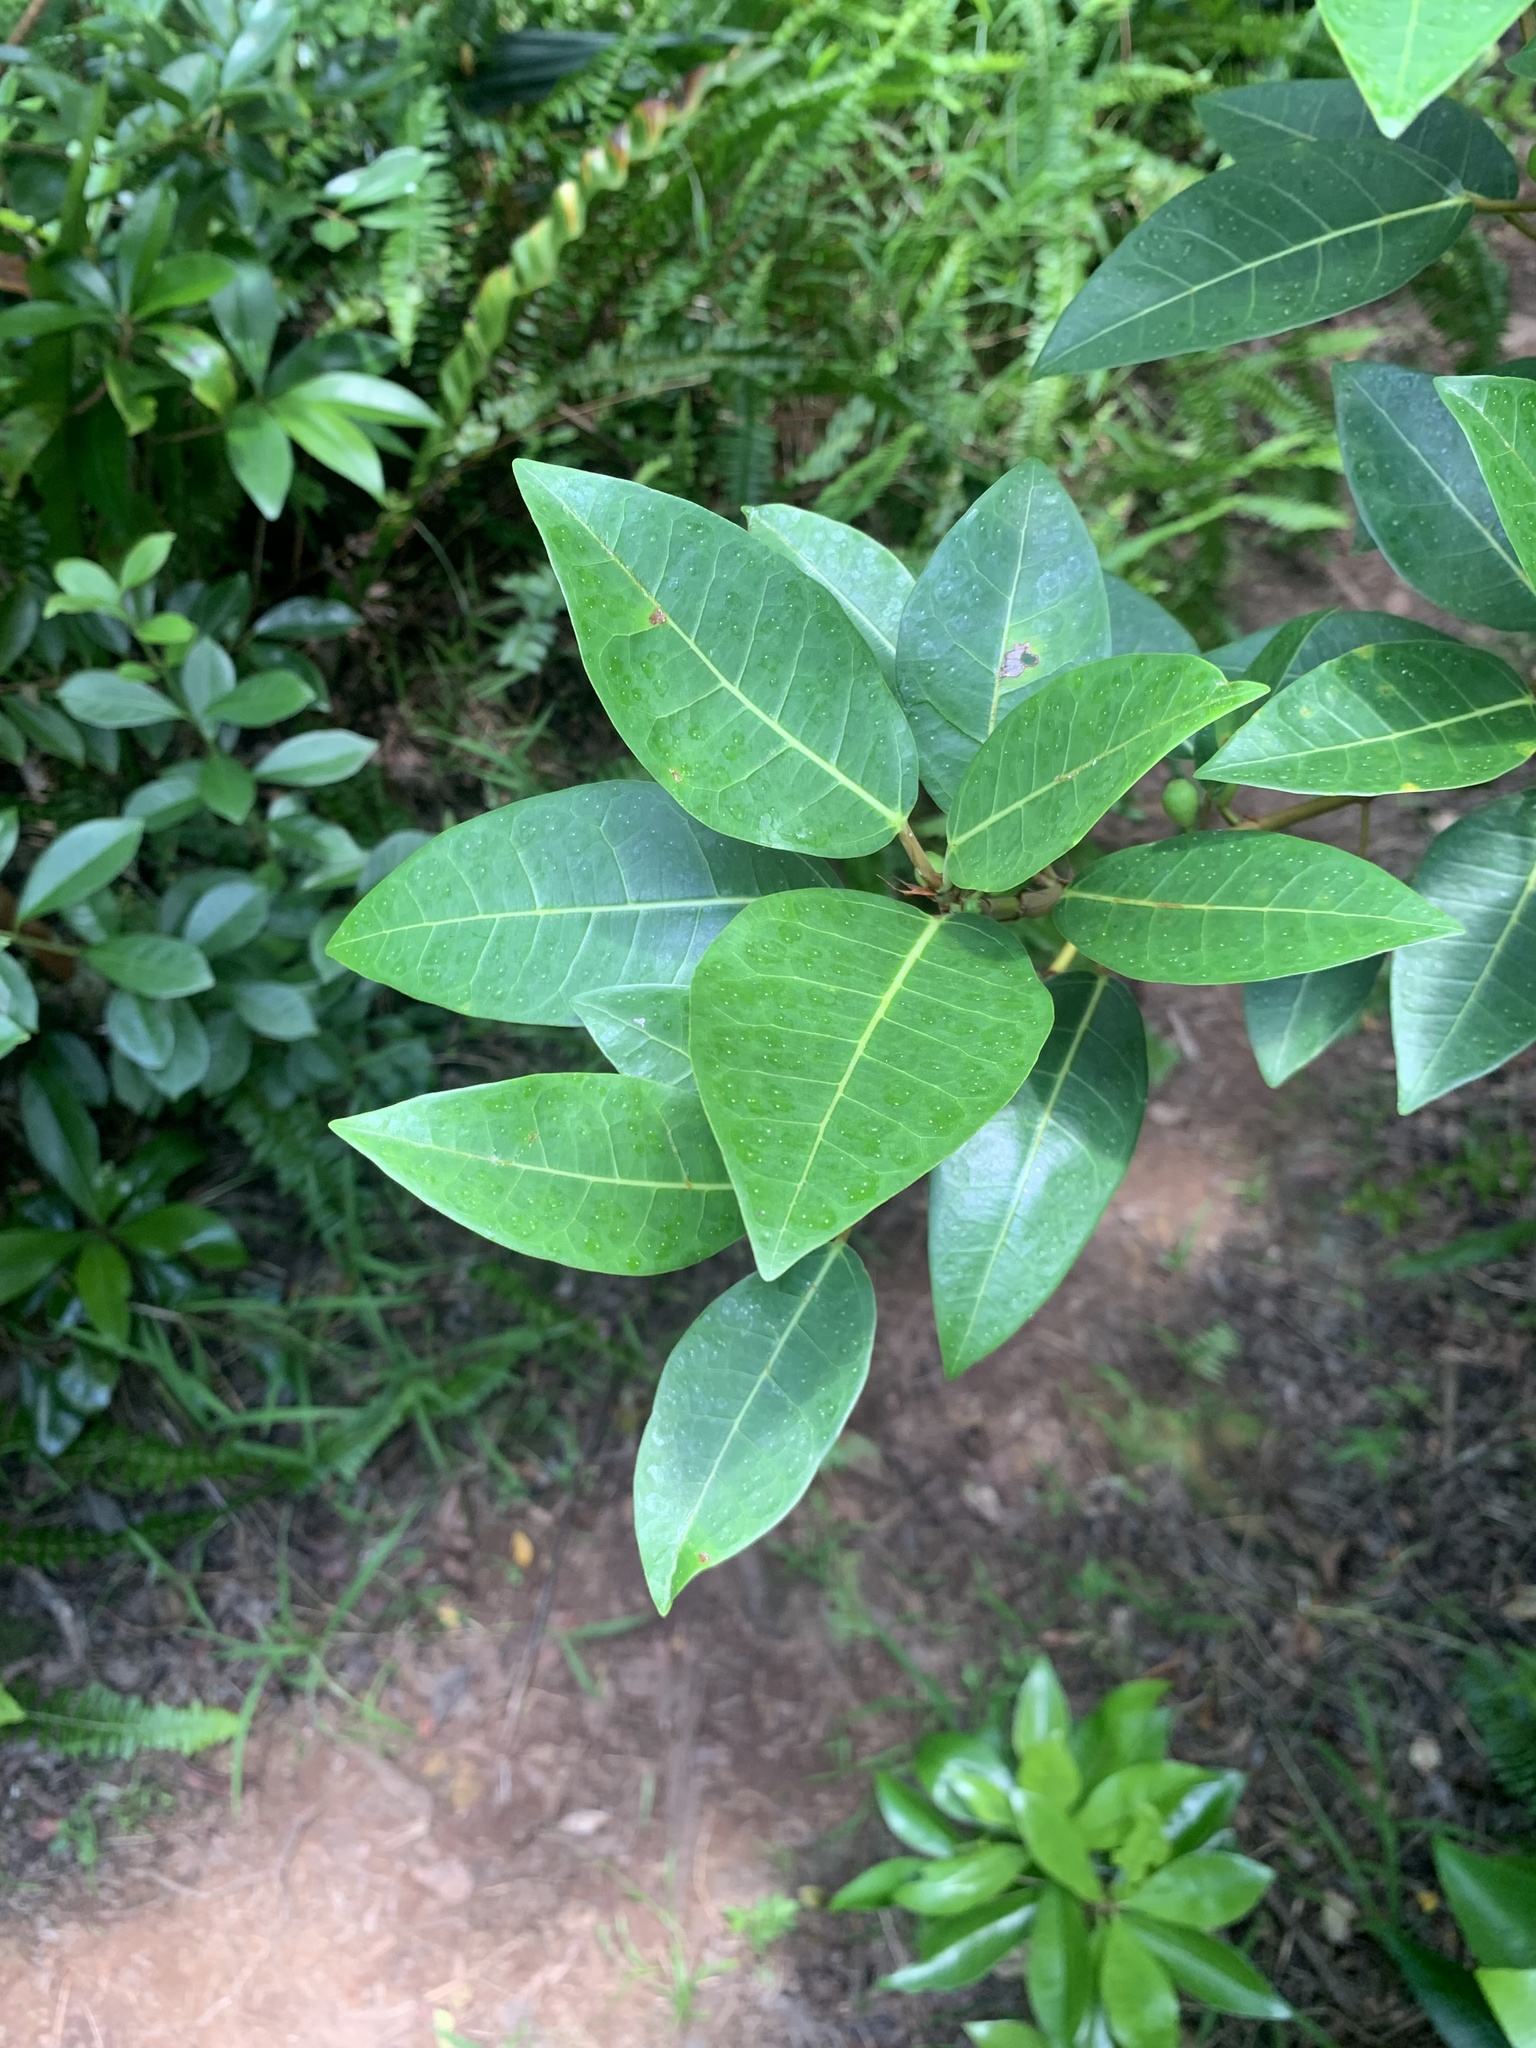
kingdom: Plantae
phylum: Tracheophyta
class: Magnoliopsida
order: Rosales
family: Moraceae
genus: Ficus
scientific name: Ficus boninsimae
